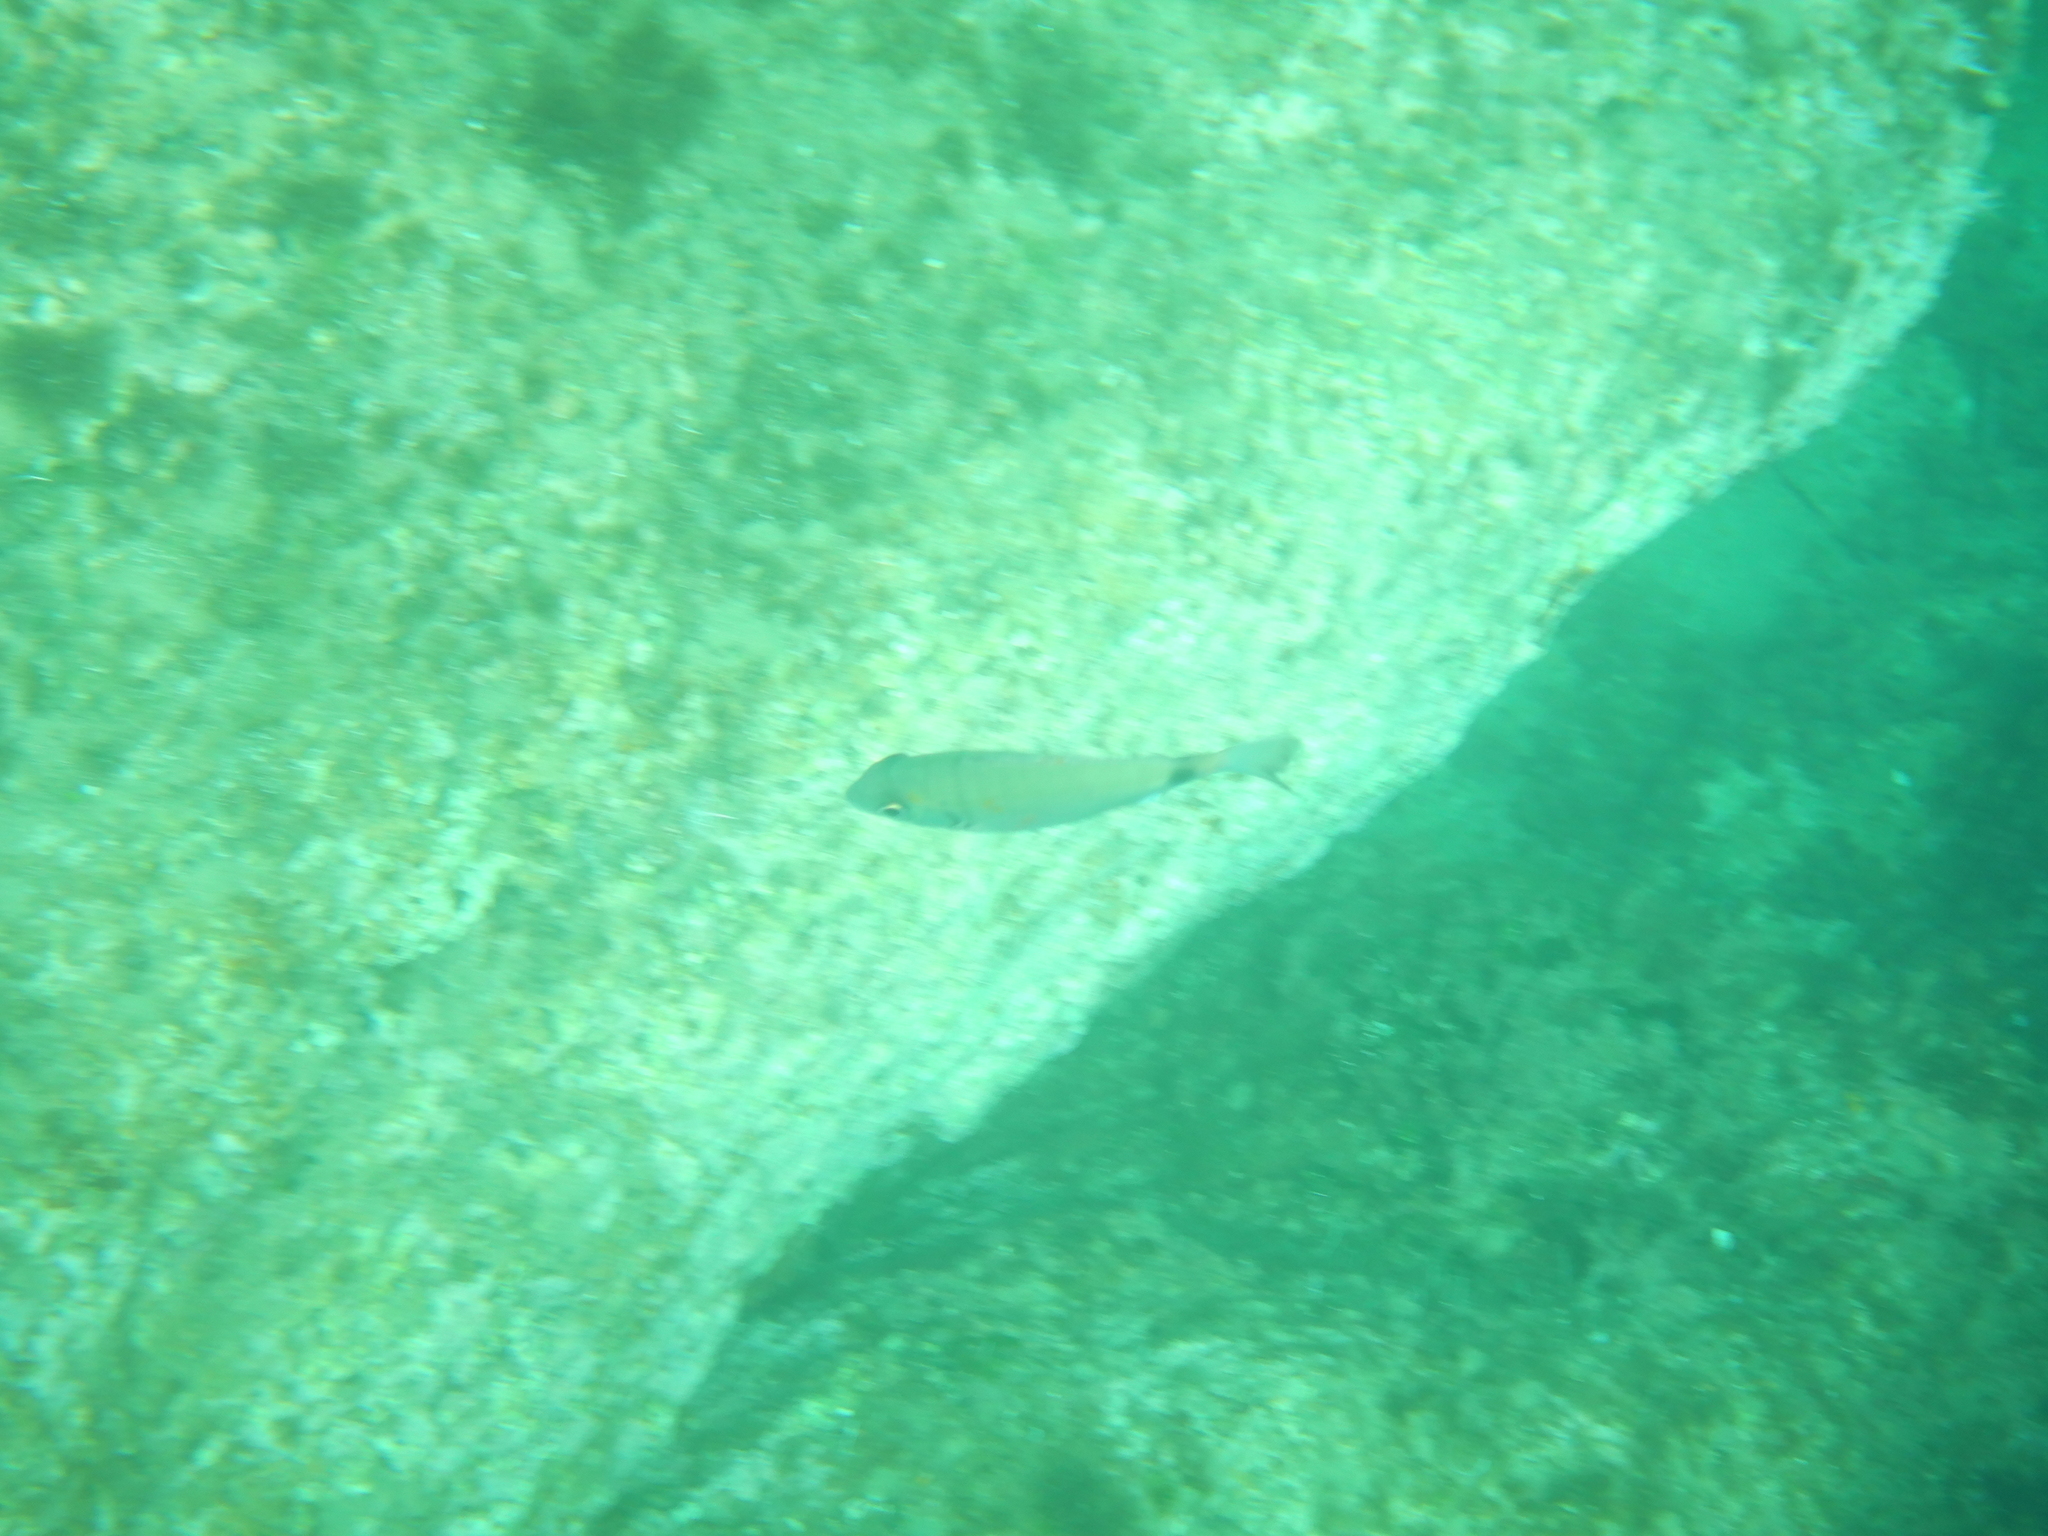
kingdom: Animalia
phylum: Chordata
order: Perciformes
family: Sparidae
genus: Diplodus
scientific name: Diplodus sargus
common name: White seabream
